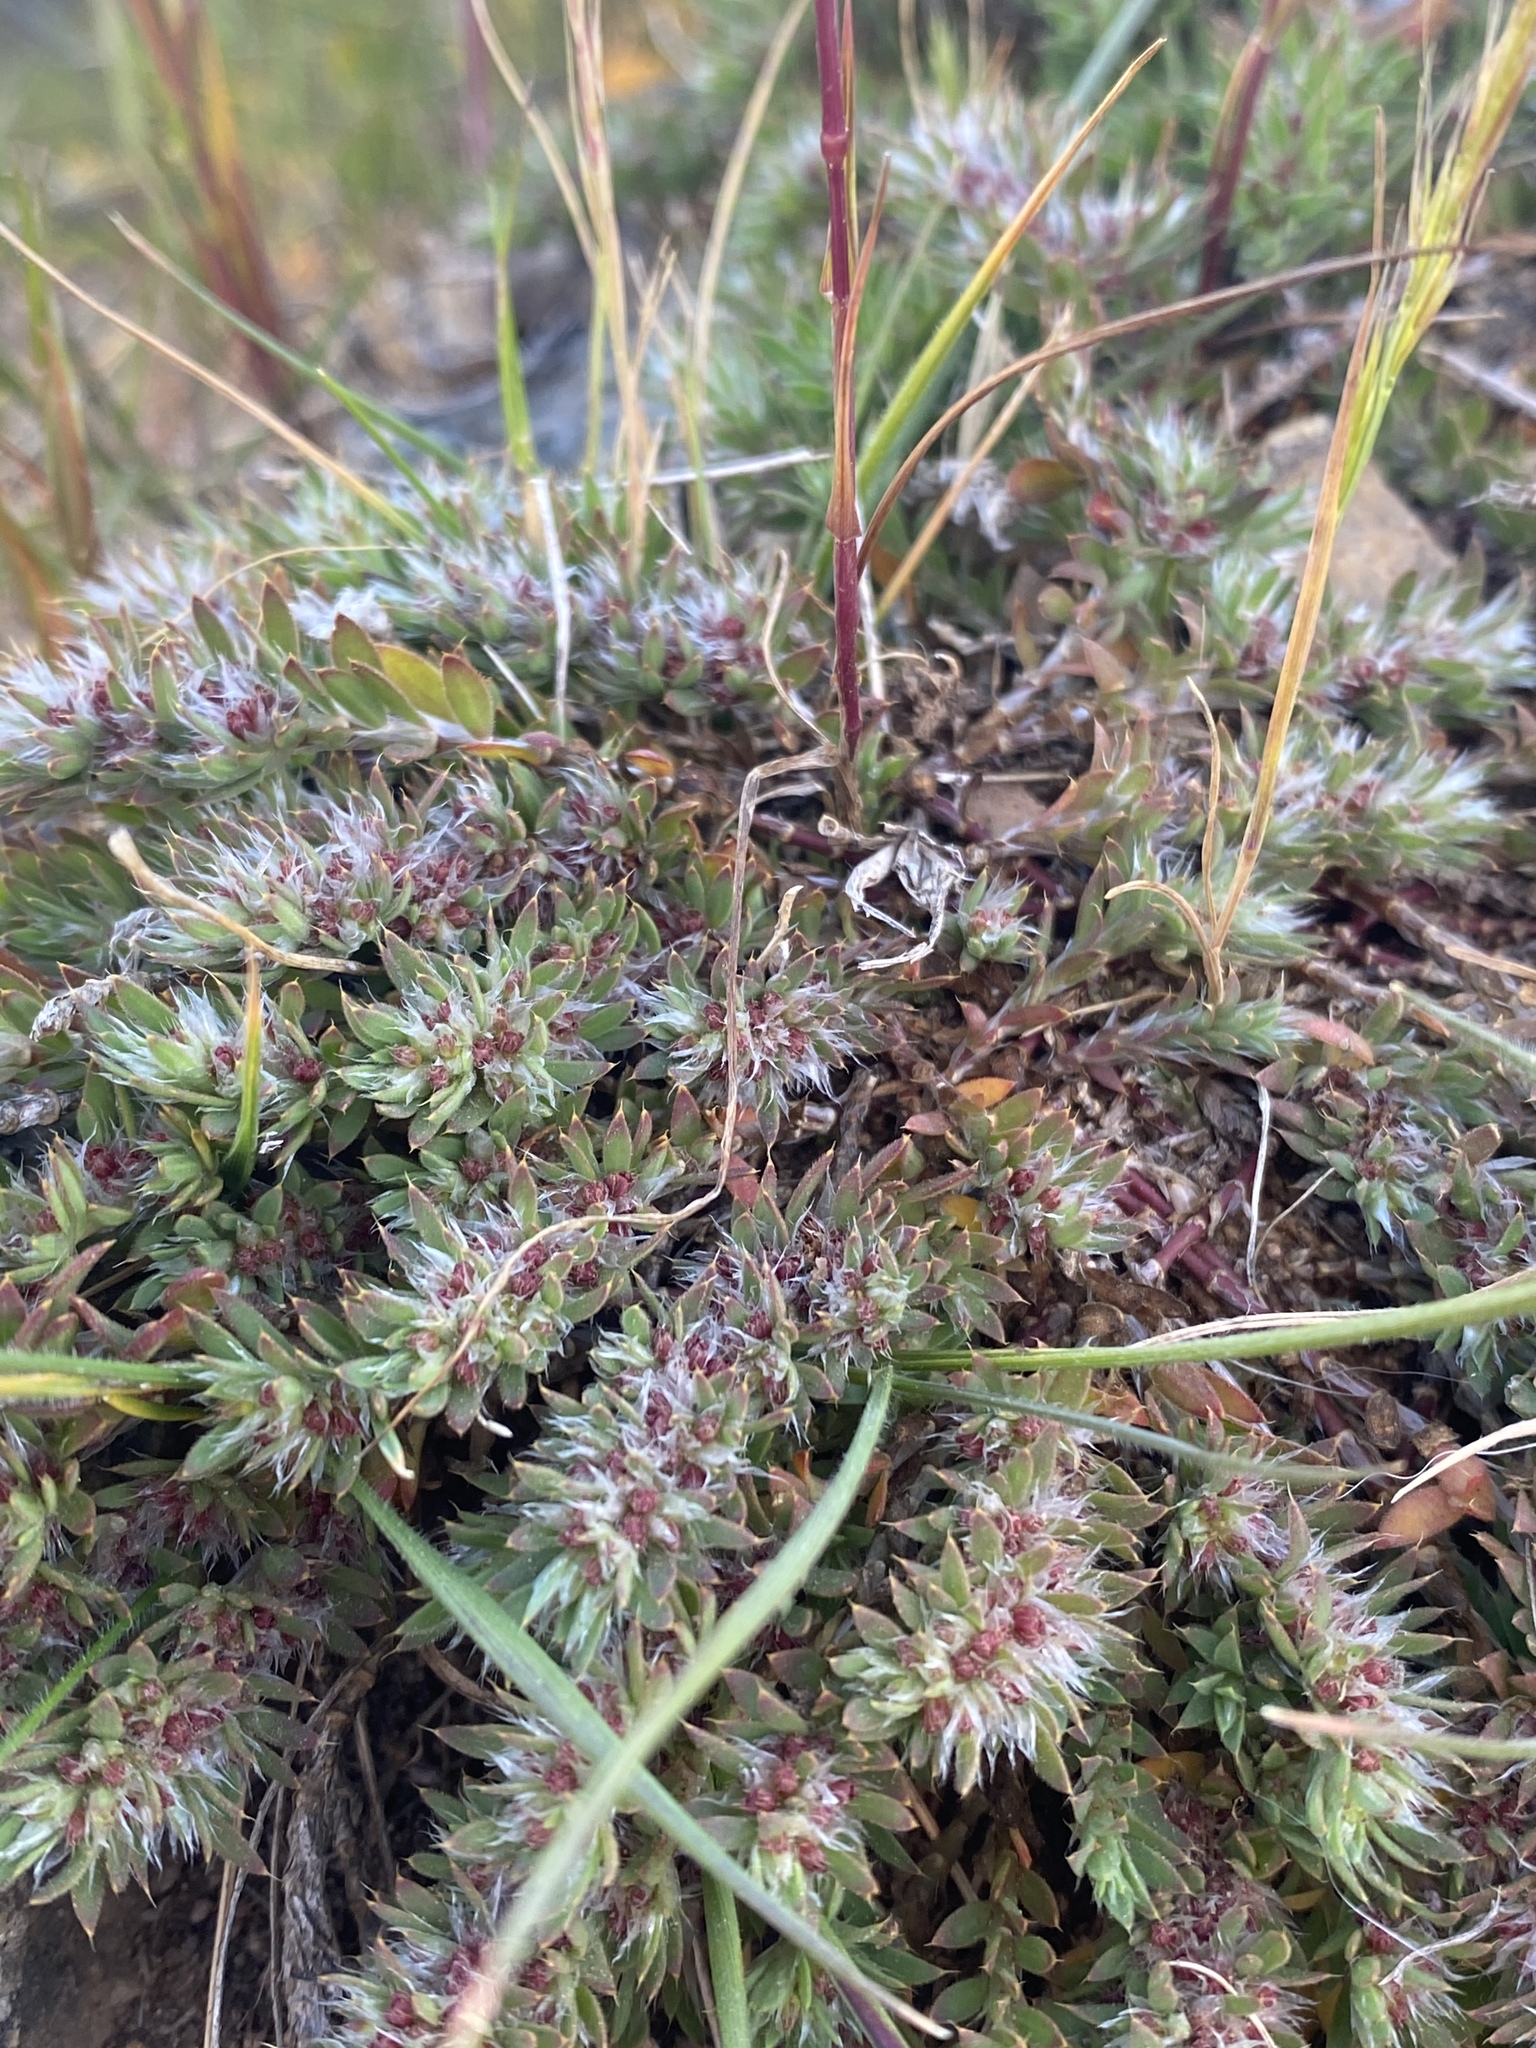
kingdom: Plantae
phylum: Tracheophyta
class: Magnoliopsida
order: Caryophyllales
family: Caryophyllaceae
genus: Cardionema
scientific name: Cardionema ramosissima
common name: Sandcarpet
